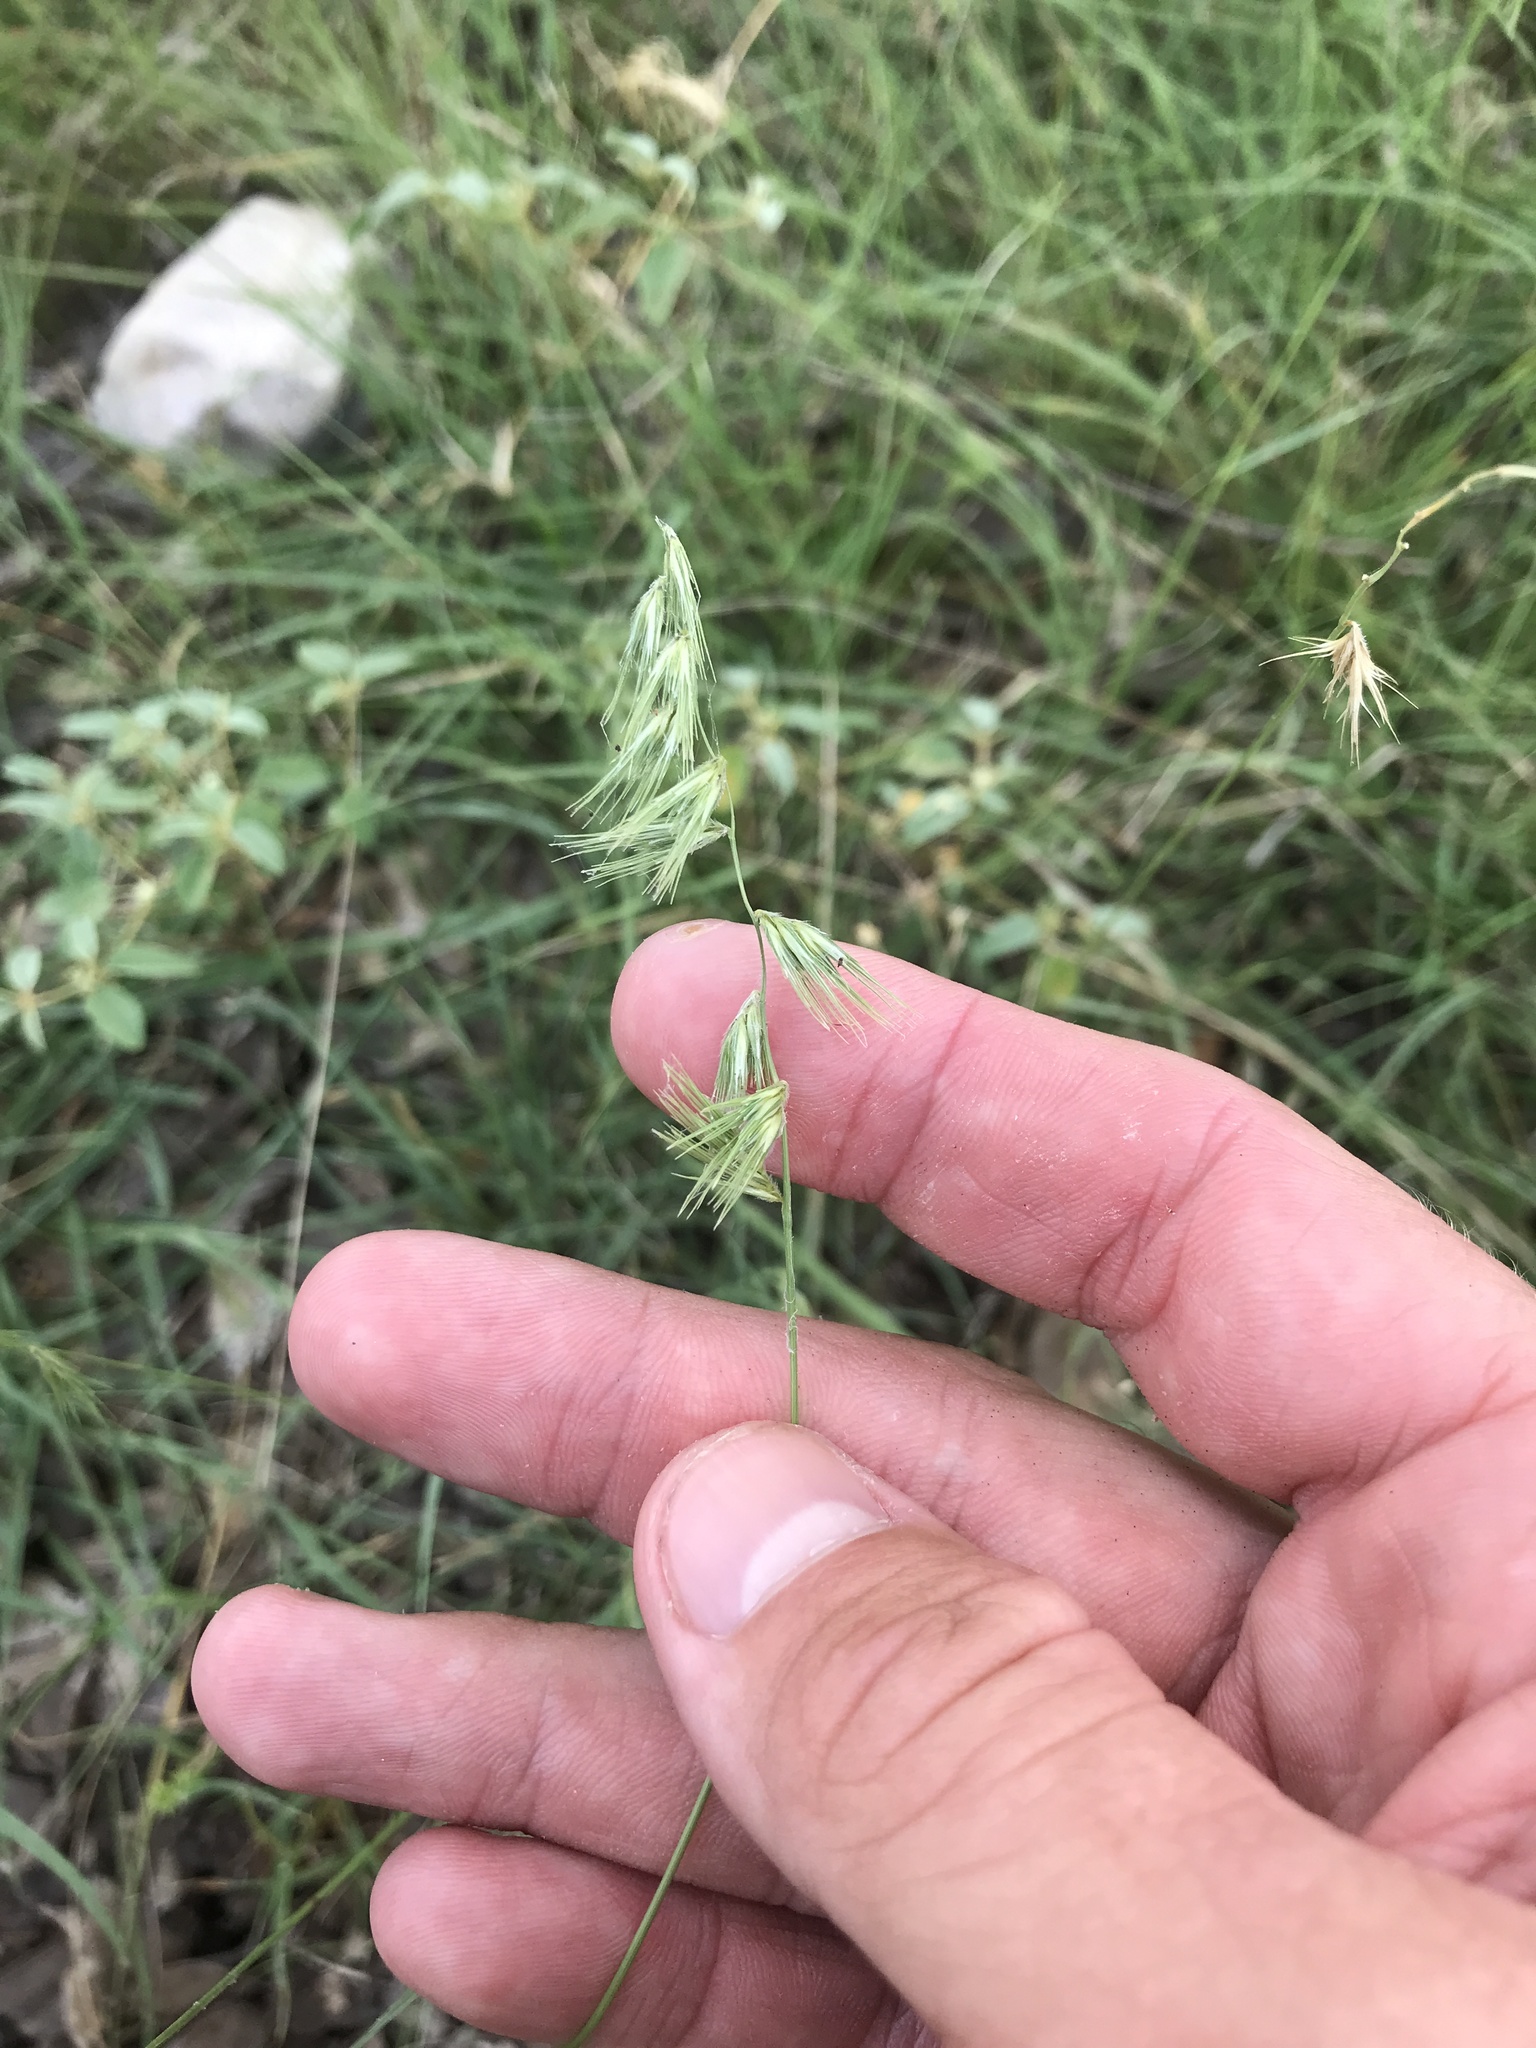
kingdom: Plantae
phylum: Tracheophyta
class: Liliopsida
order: Poales
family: Poaceae
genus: Bouteloua
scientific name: Bouteloua rigidiseta
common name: Texas grama
